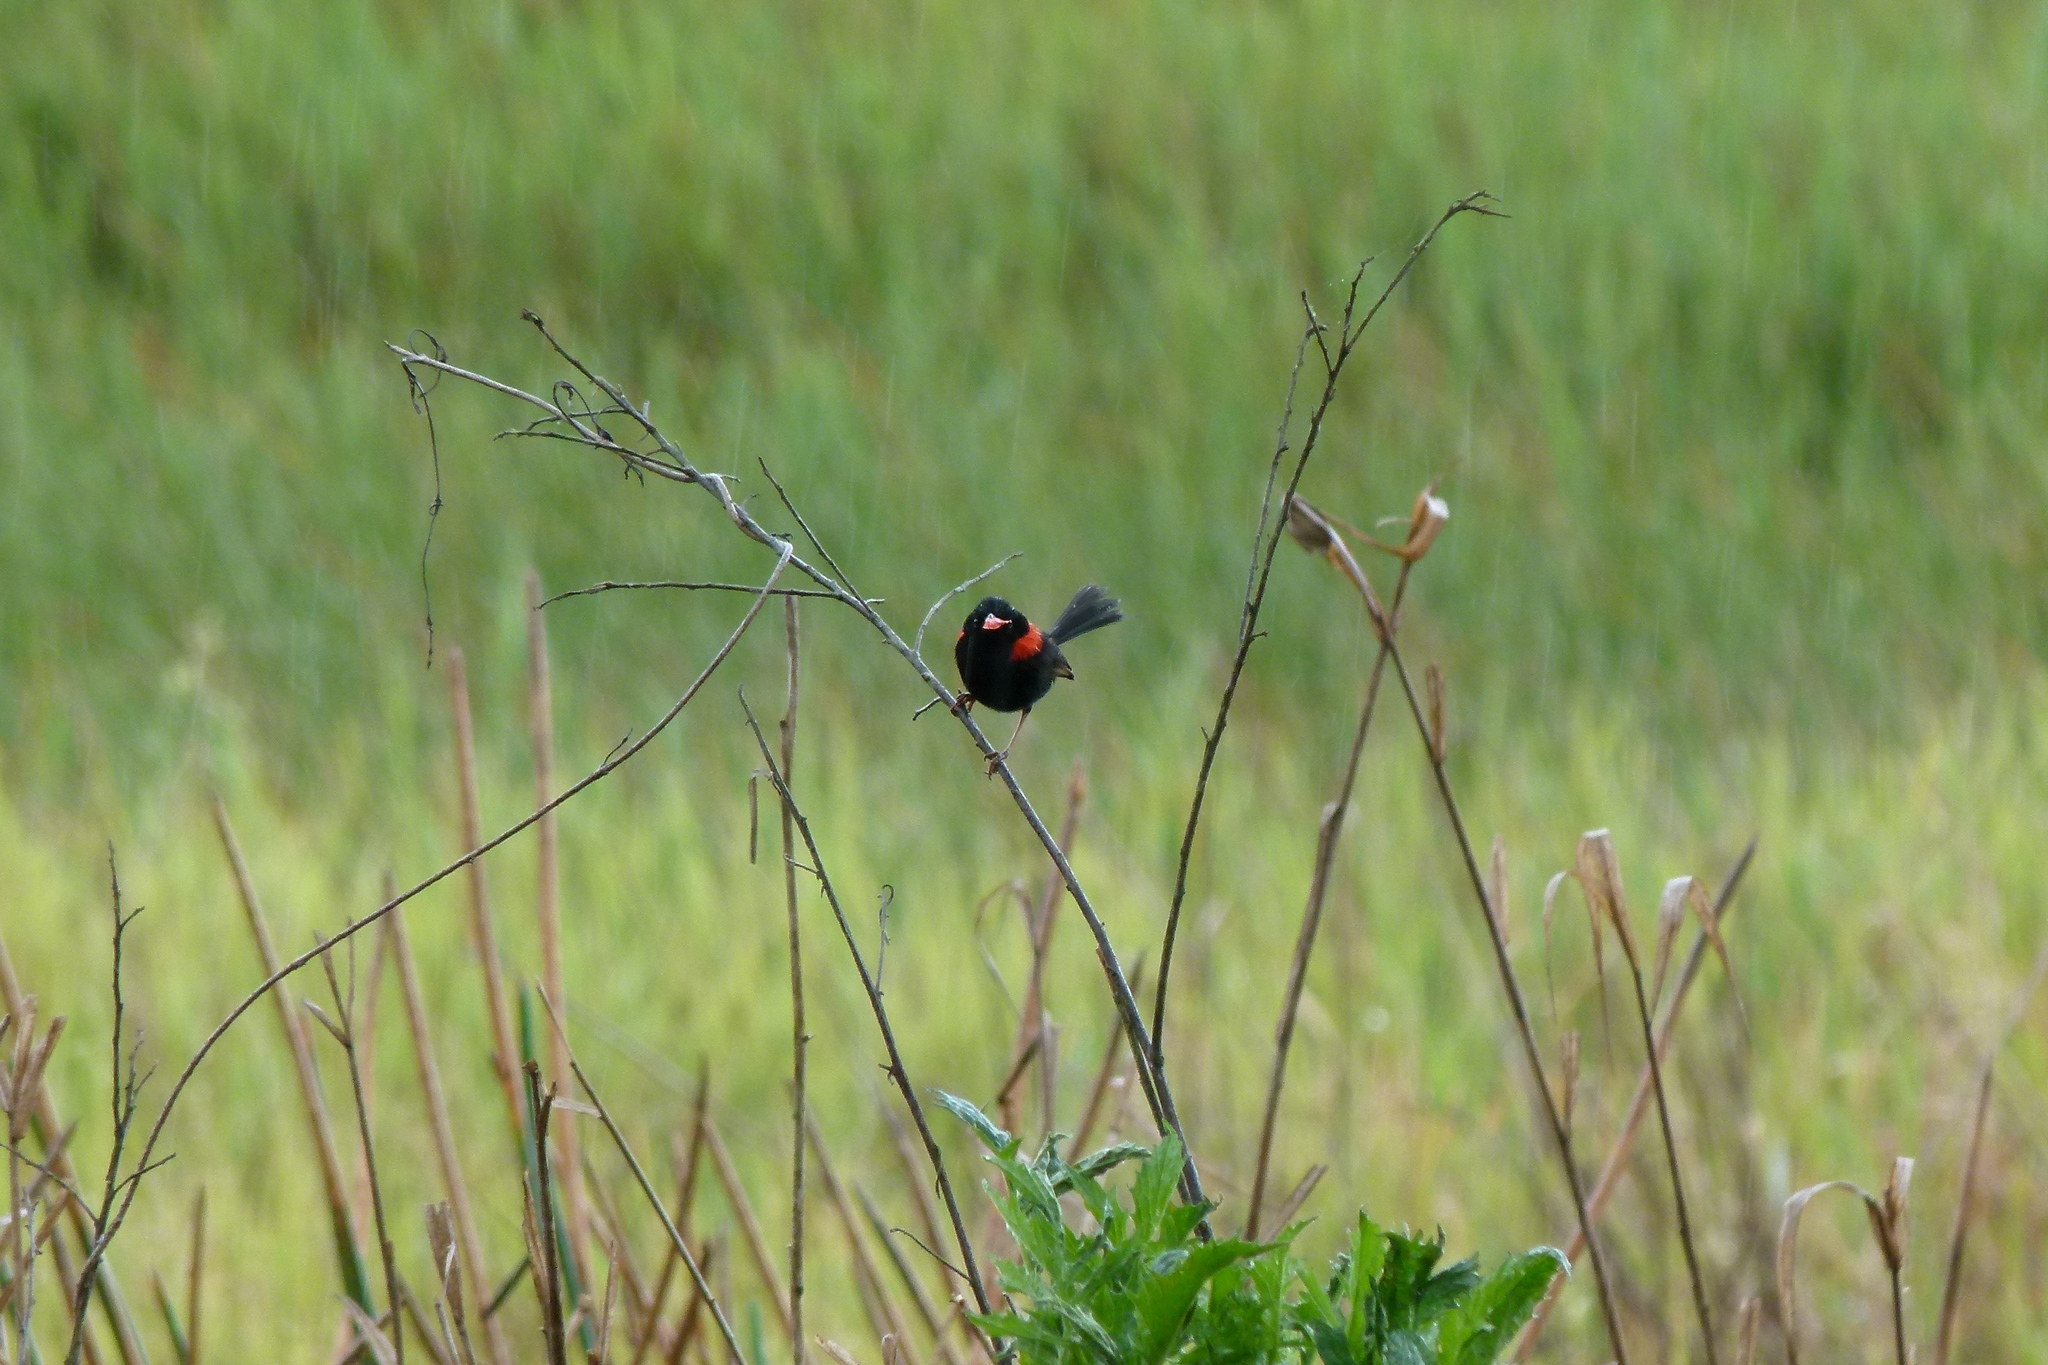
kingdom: Animalia
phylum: Chordata
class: Aves
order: Passeriformes
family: Maluridae
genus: Malurus
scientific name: Malurus melanocephalus
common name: Red-backed fairywren
